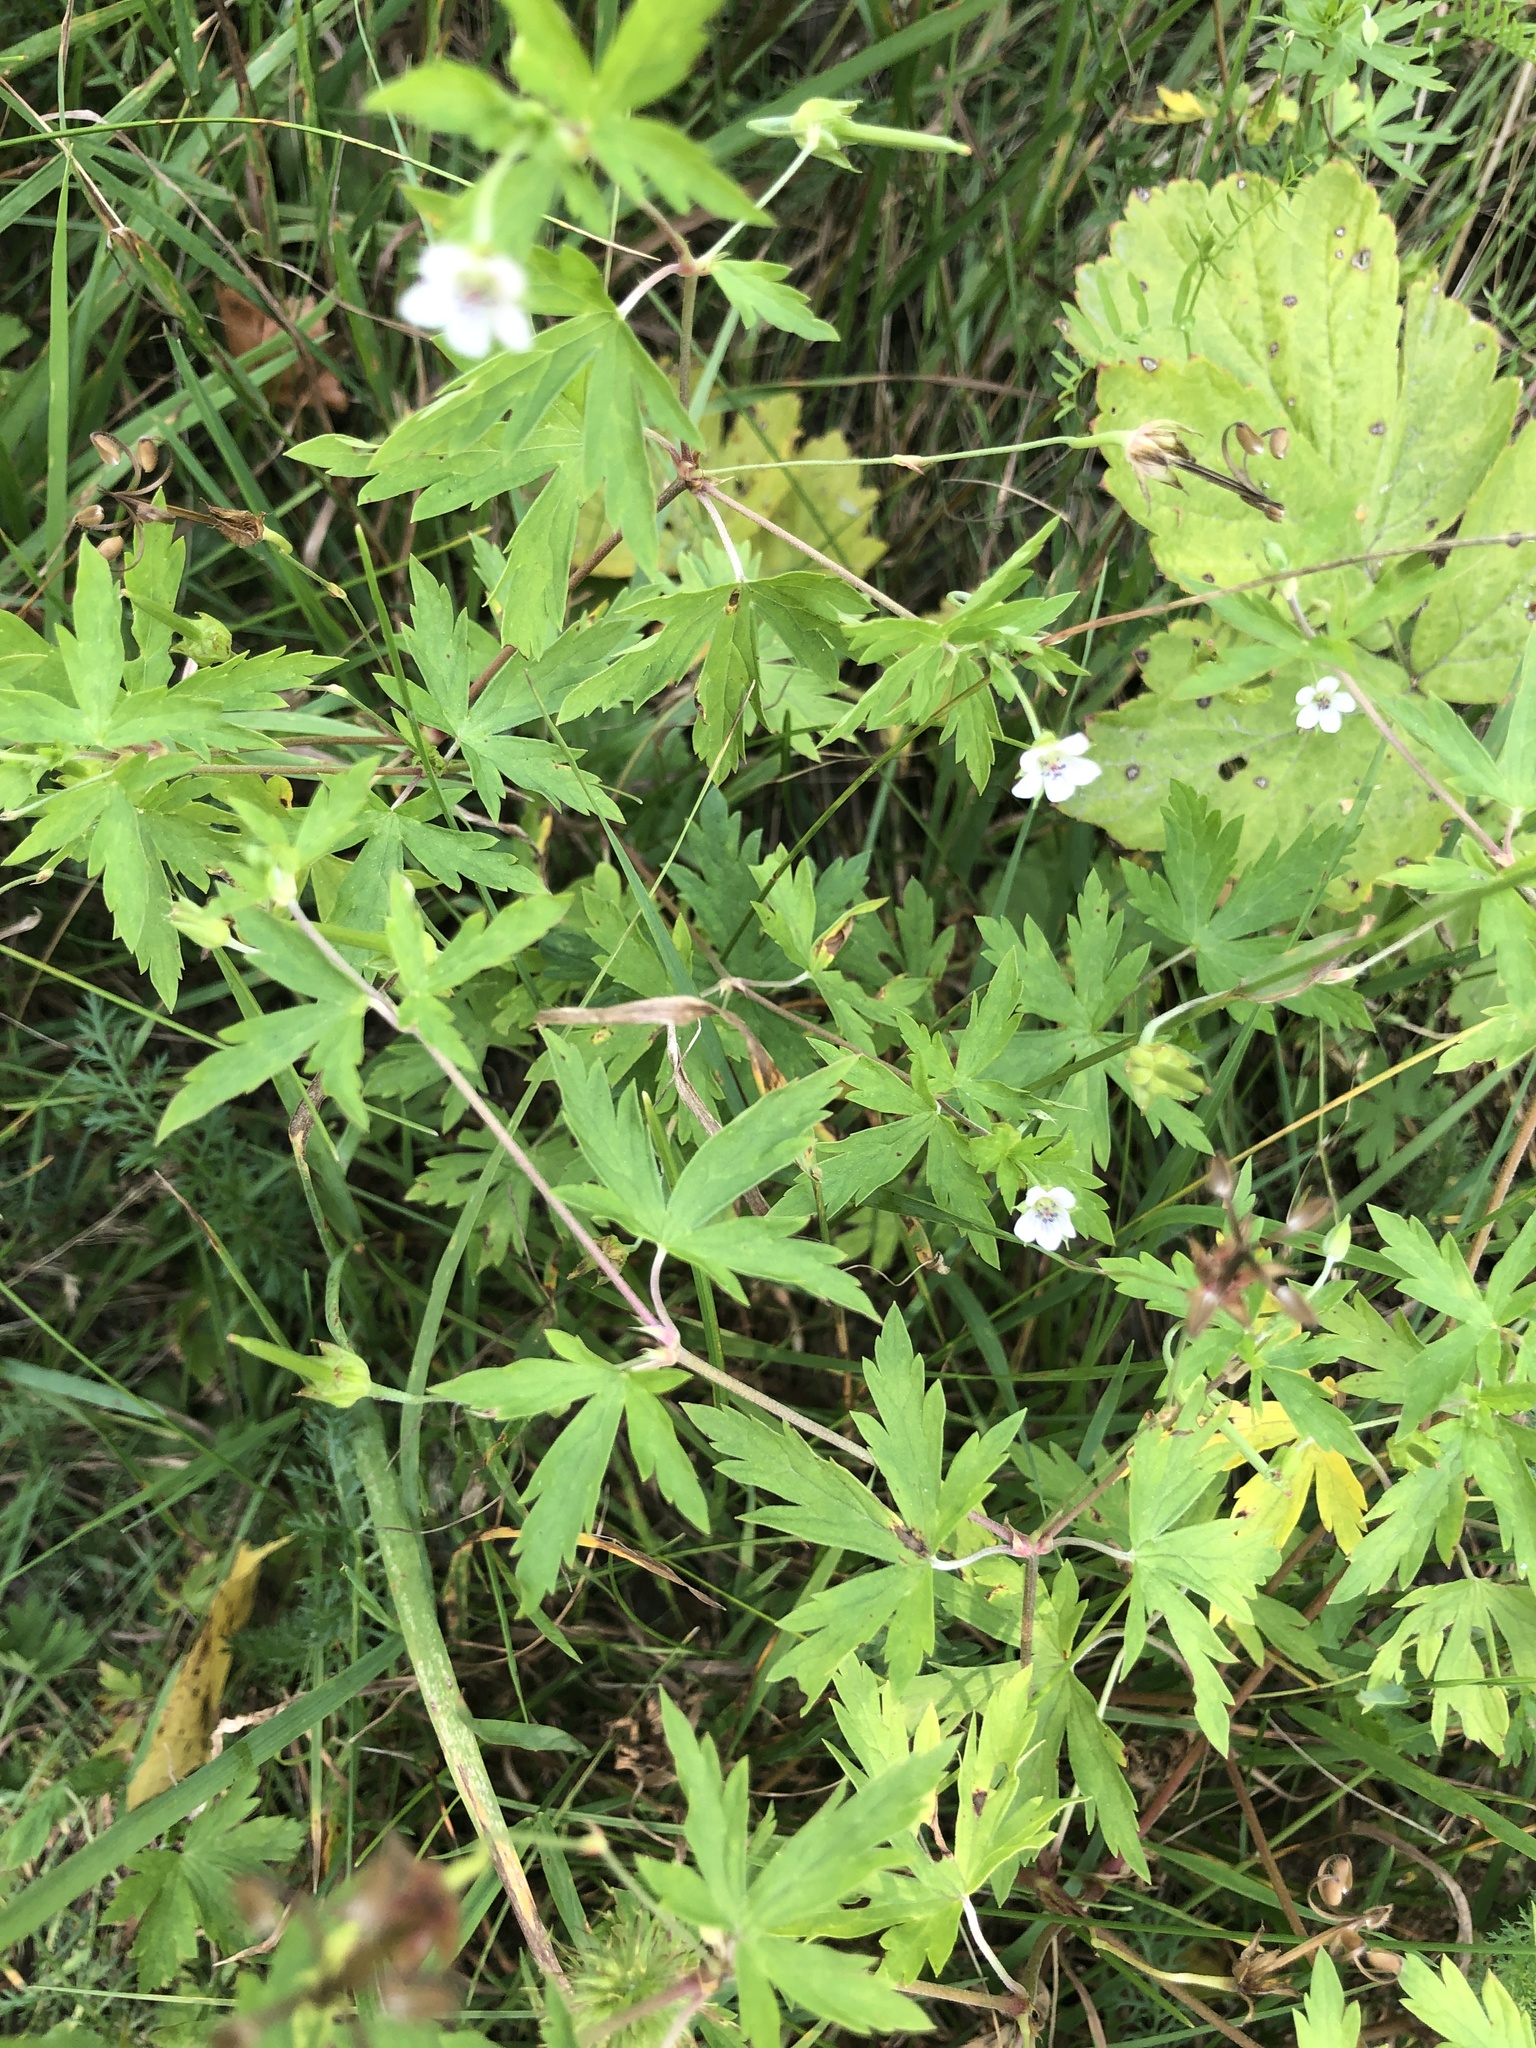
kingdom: Plantae
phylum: Tracheophyta
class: Magnoliopsida
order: Geraniales
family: Geraniaceae
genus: Geranium
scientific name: Geranium sibiricum
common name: Siberian crane's-bill
